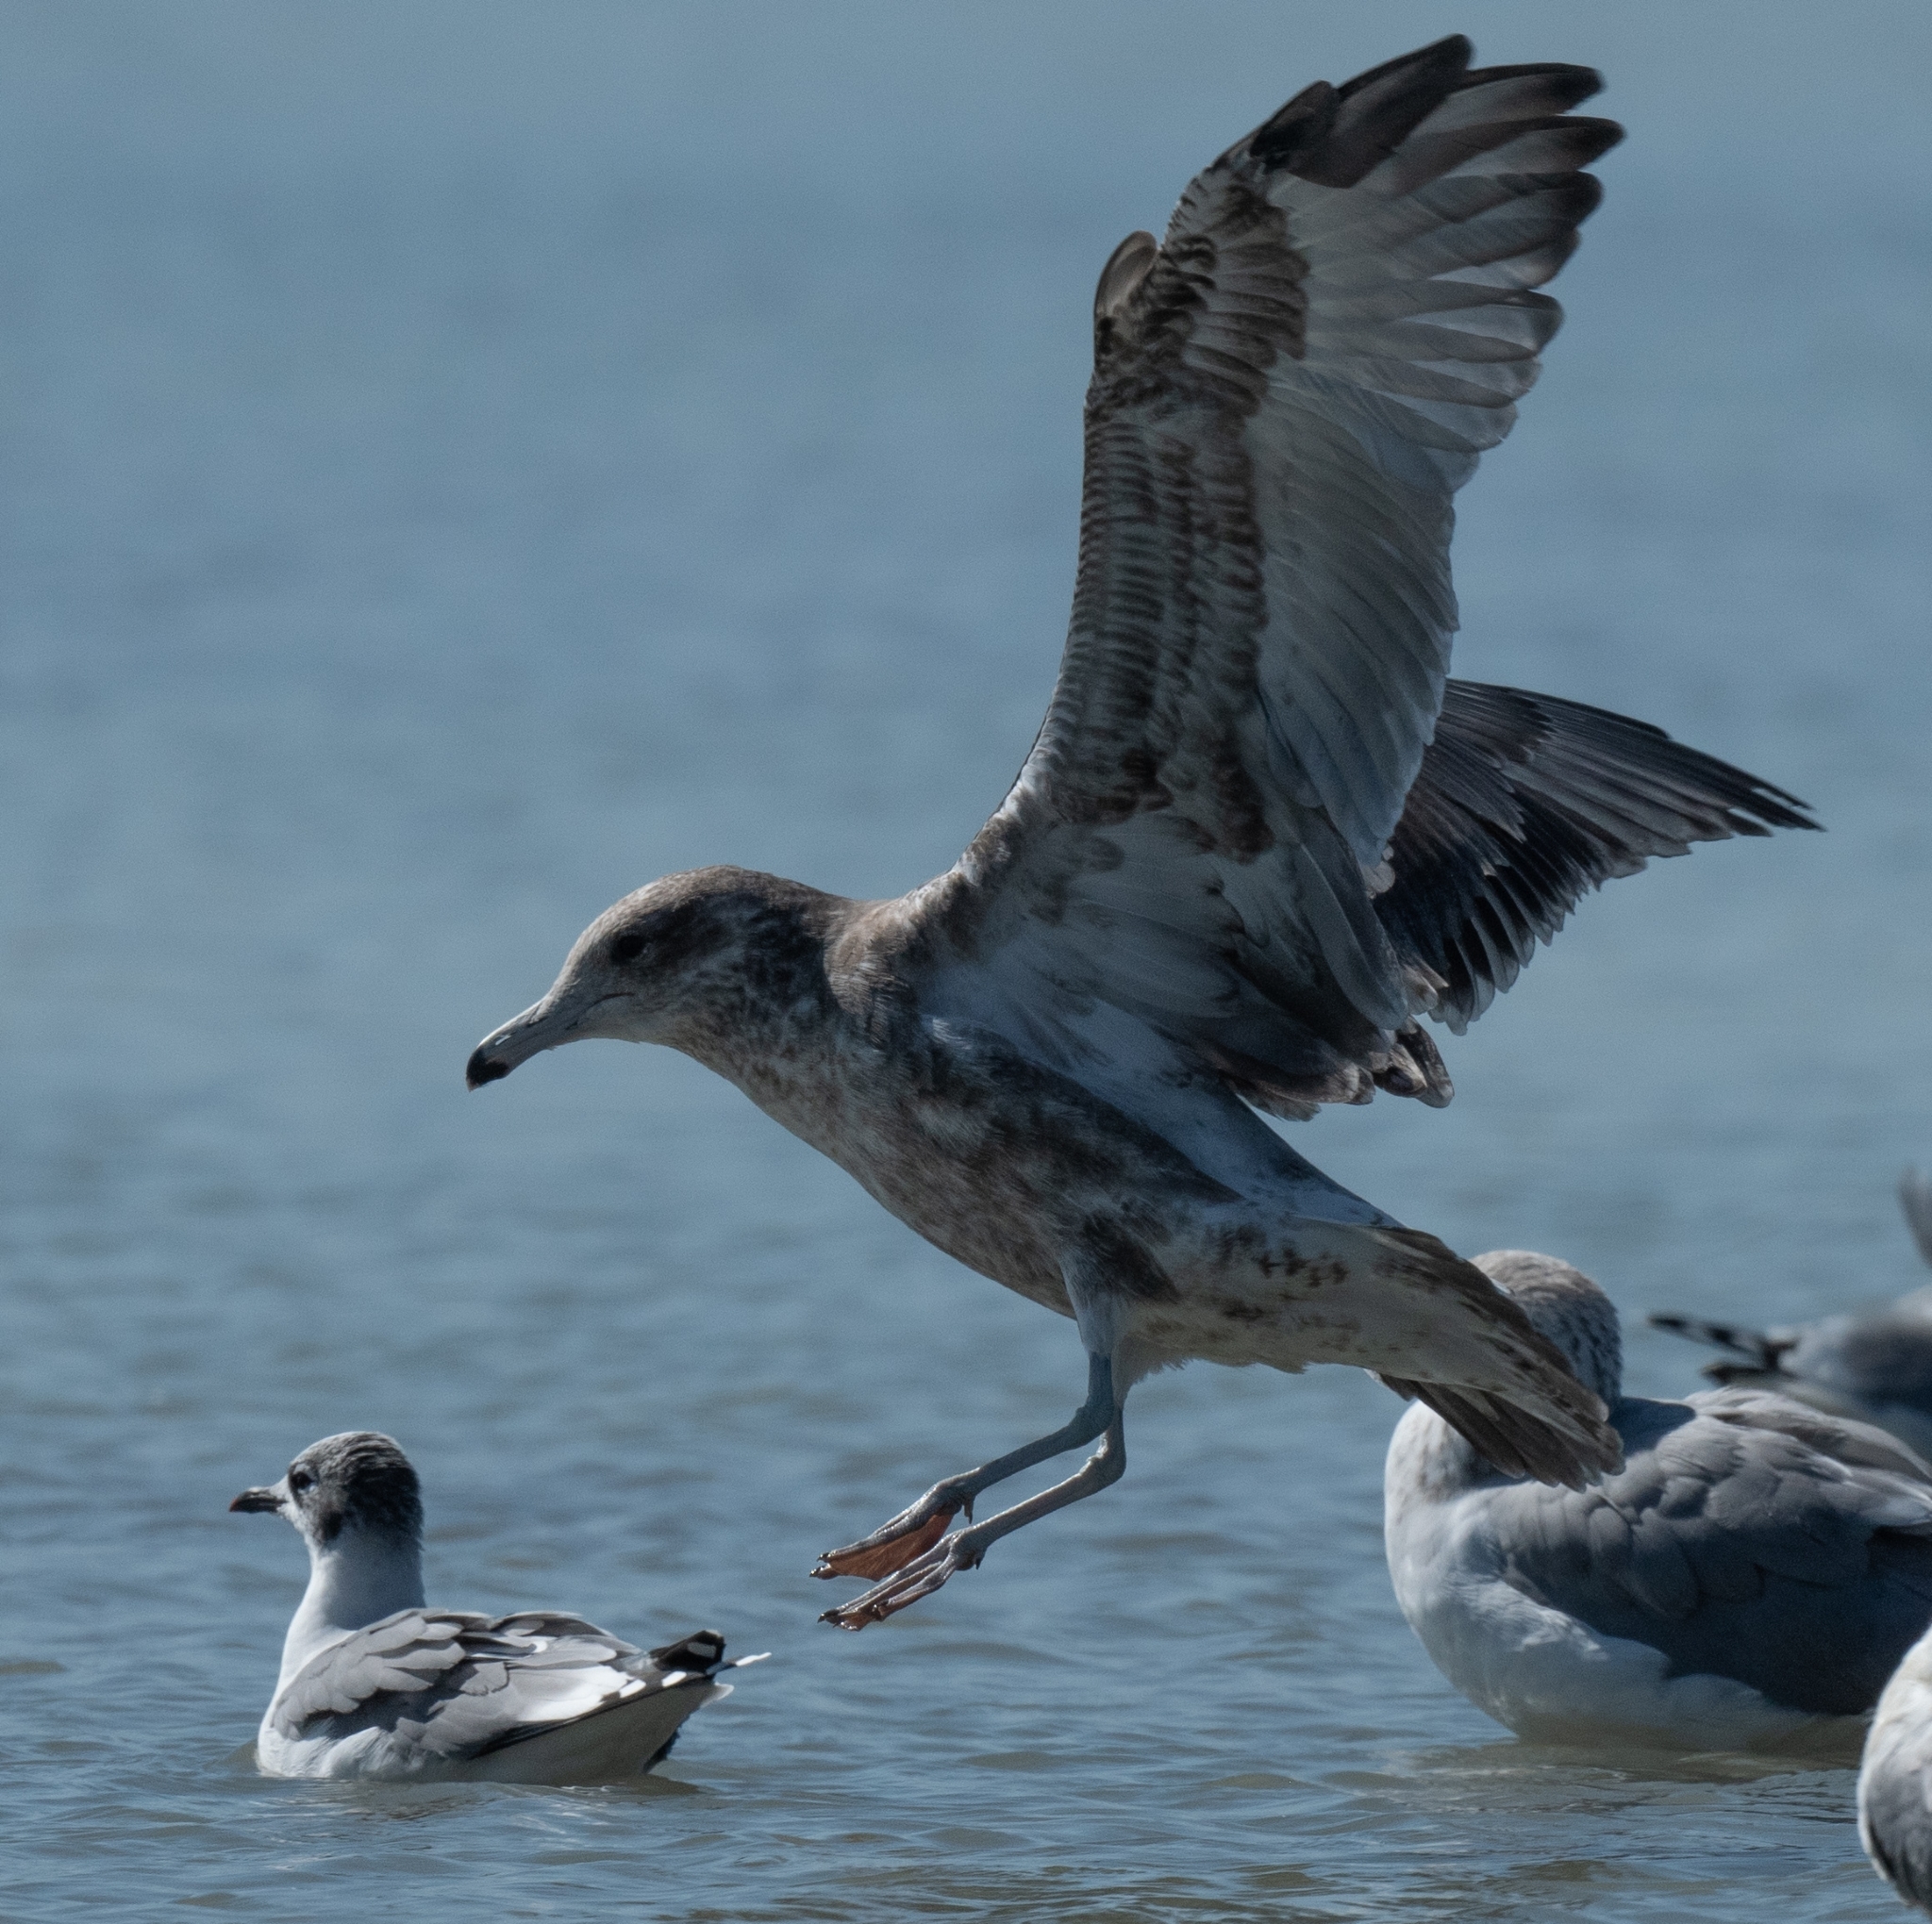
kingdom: Animalia
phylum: Chordata
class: Aves
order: Charadriiformes
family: Laridae
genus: Larus
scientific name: Larus californicus
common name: California gull
